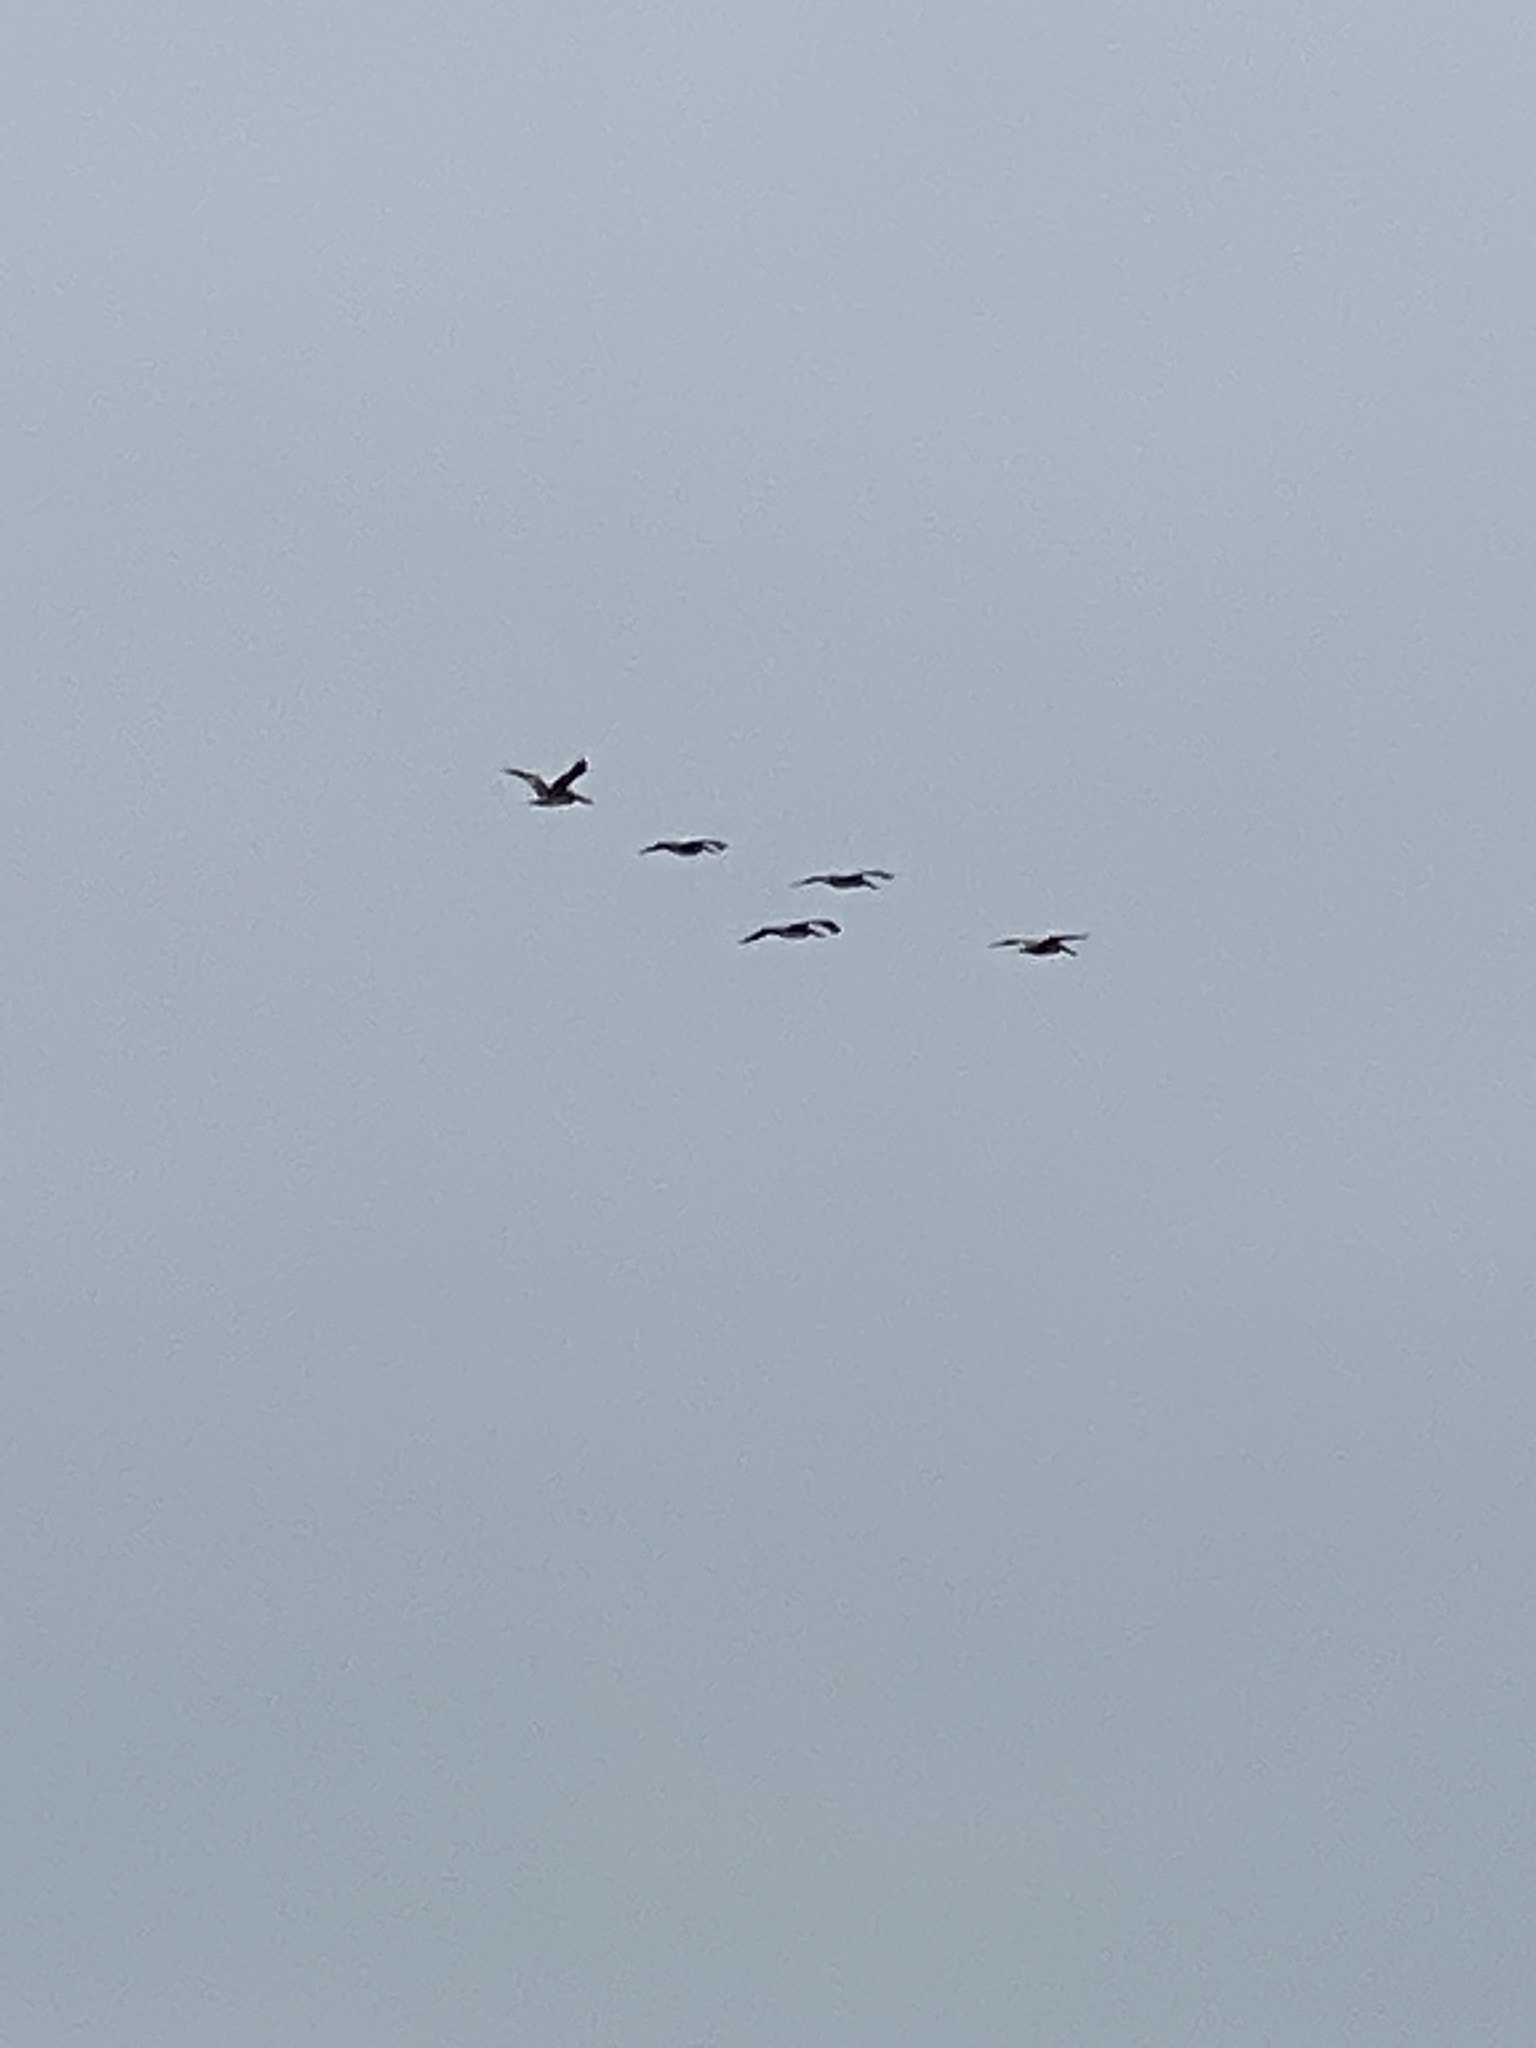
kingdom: Animalia
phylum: Chordata
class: Aves
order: Pelecaniformes
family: Pelecanidae
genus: Pelecanus
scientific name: Pelecanus occidentalis
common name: Brown pelican
